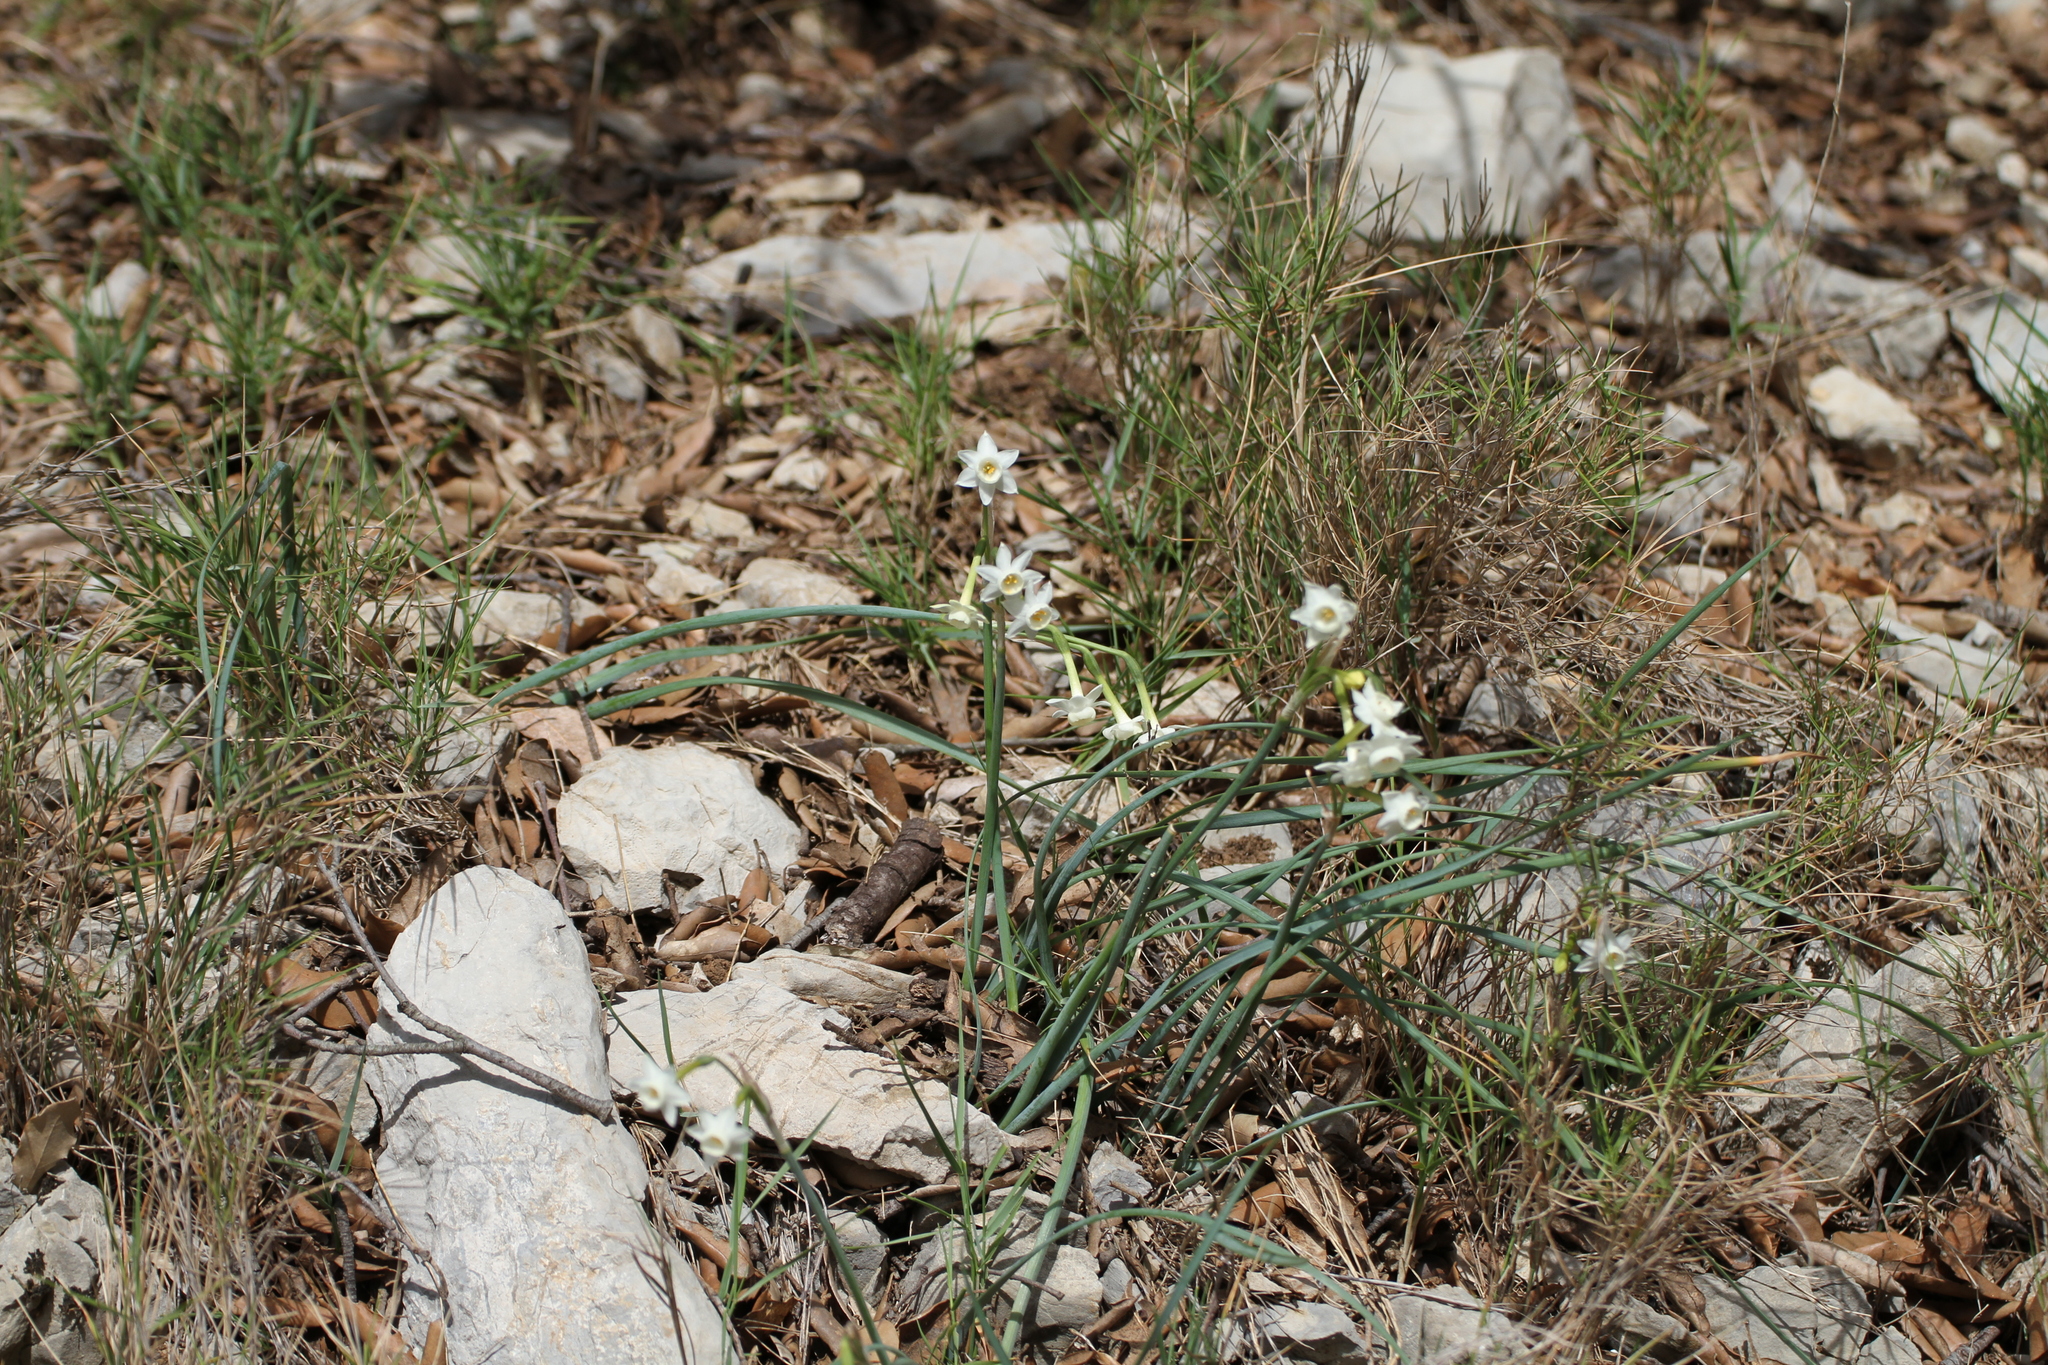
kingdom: Plantae
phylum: Tracheophyta
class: Liliopsida
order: Asparagales
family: Amaryllidaceae
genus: Narcissus
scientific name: Narcissus dubius
